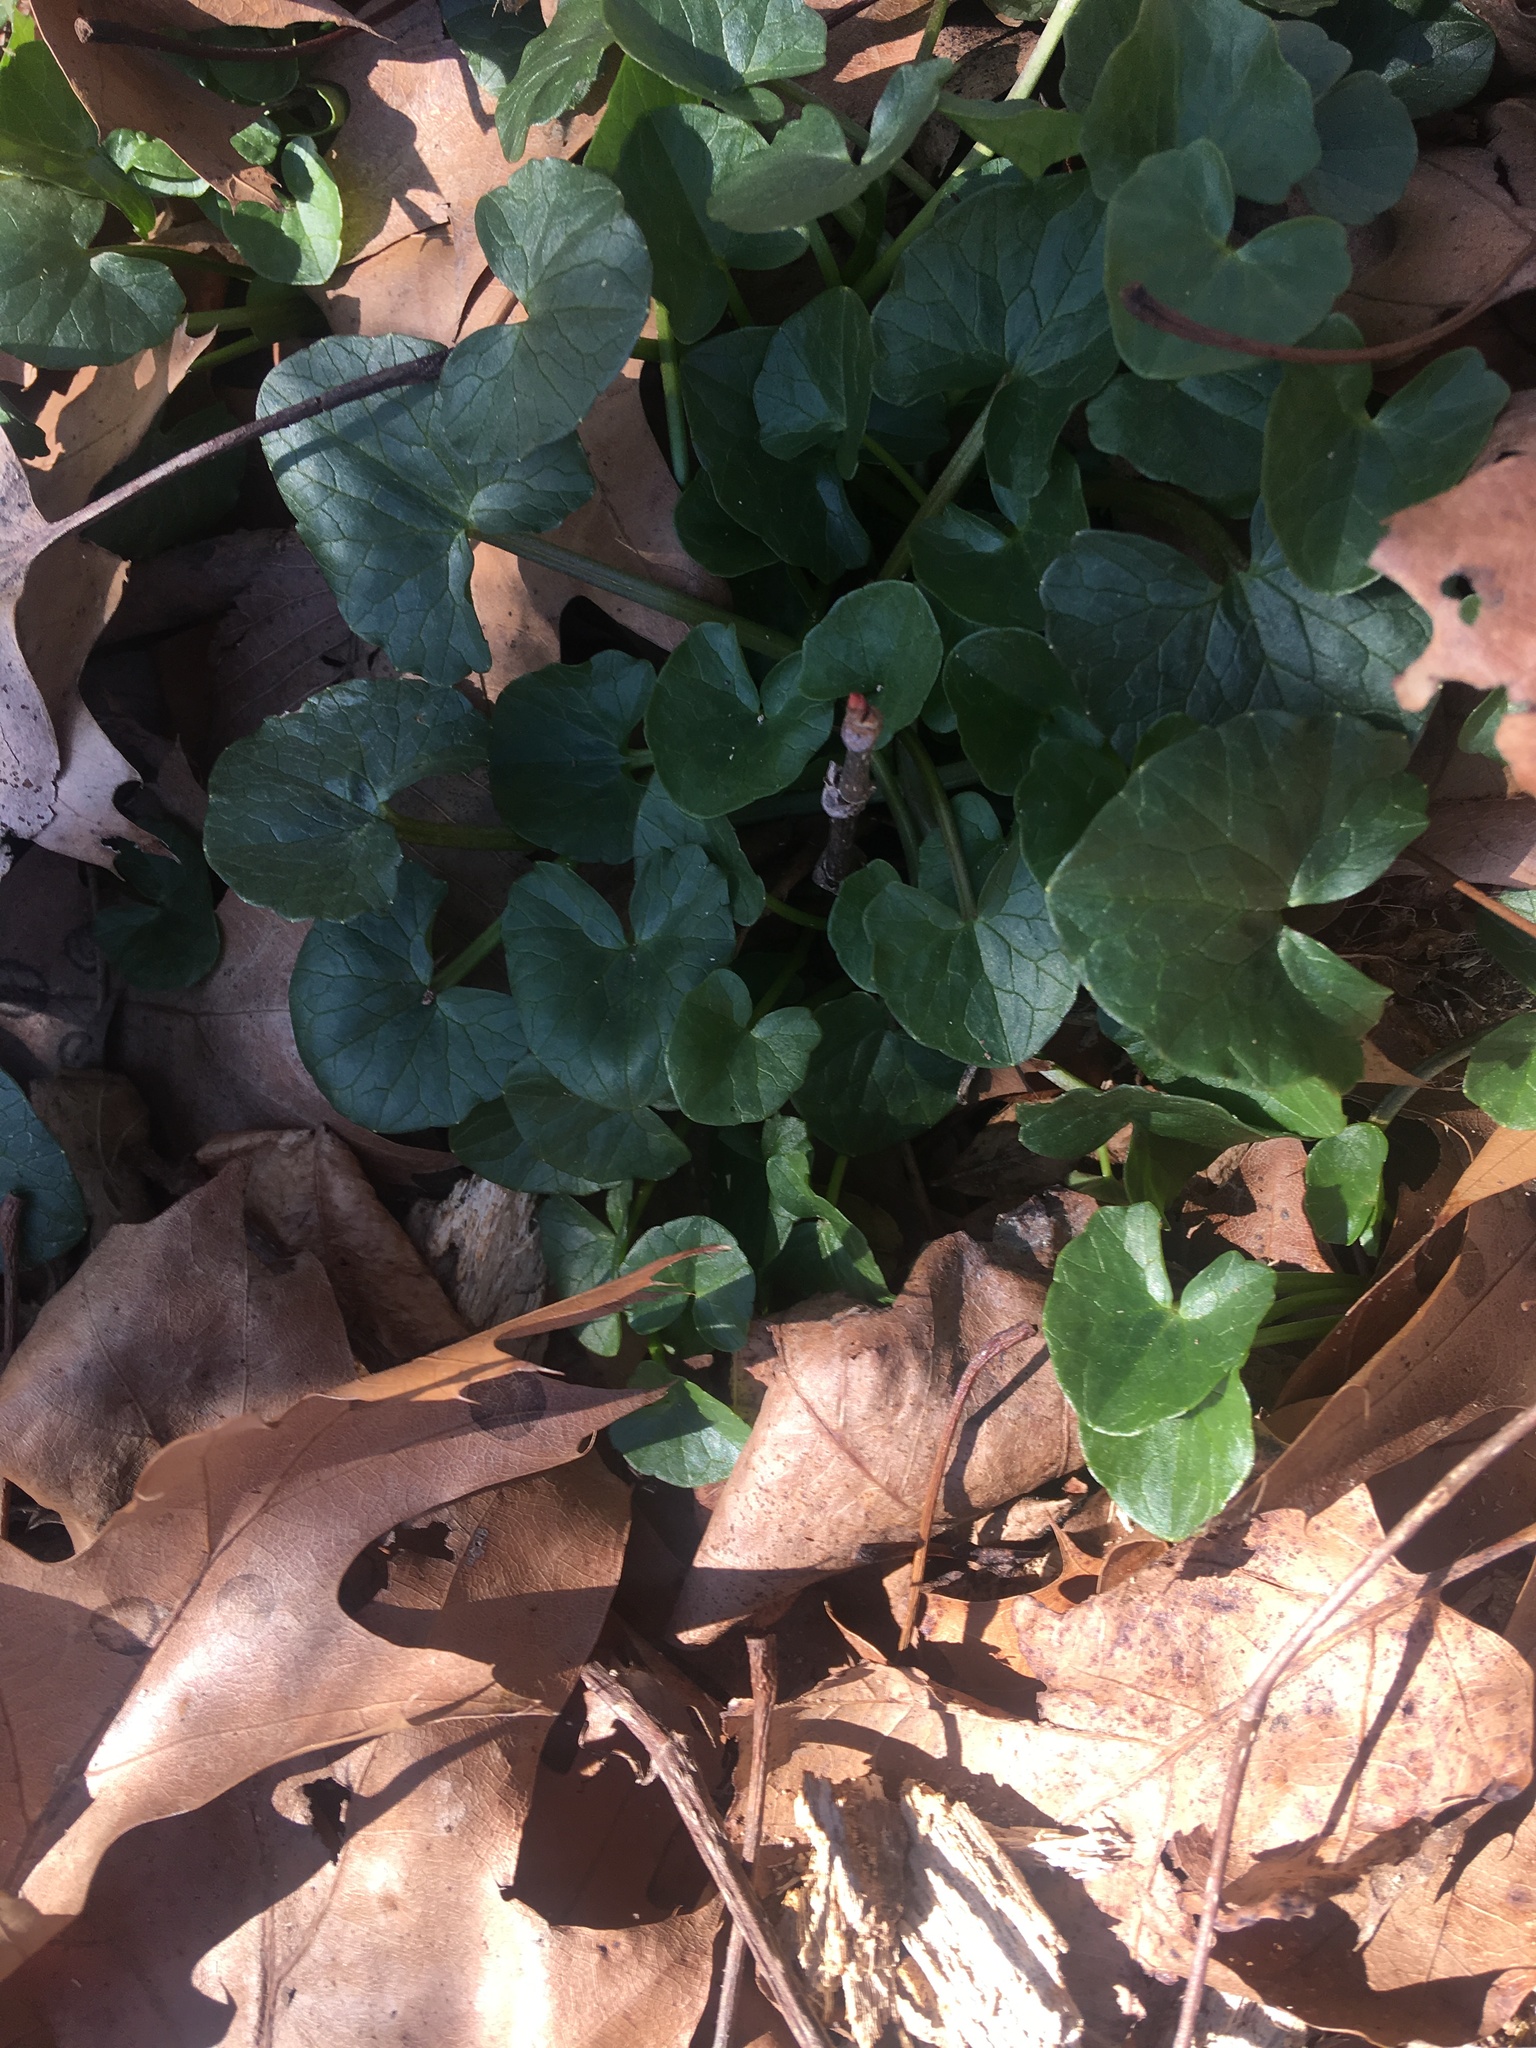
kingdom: Plantae
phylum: Tracheophyta
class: Magnoliopsida
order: Ranunculales
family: Ranunculaceae
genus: Ficaria
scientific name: Ficaria verna
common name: Lesser celandine
